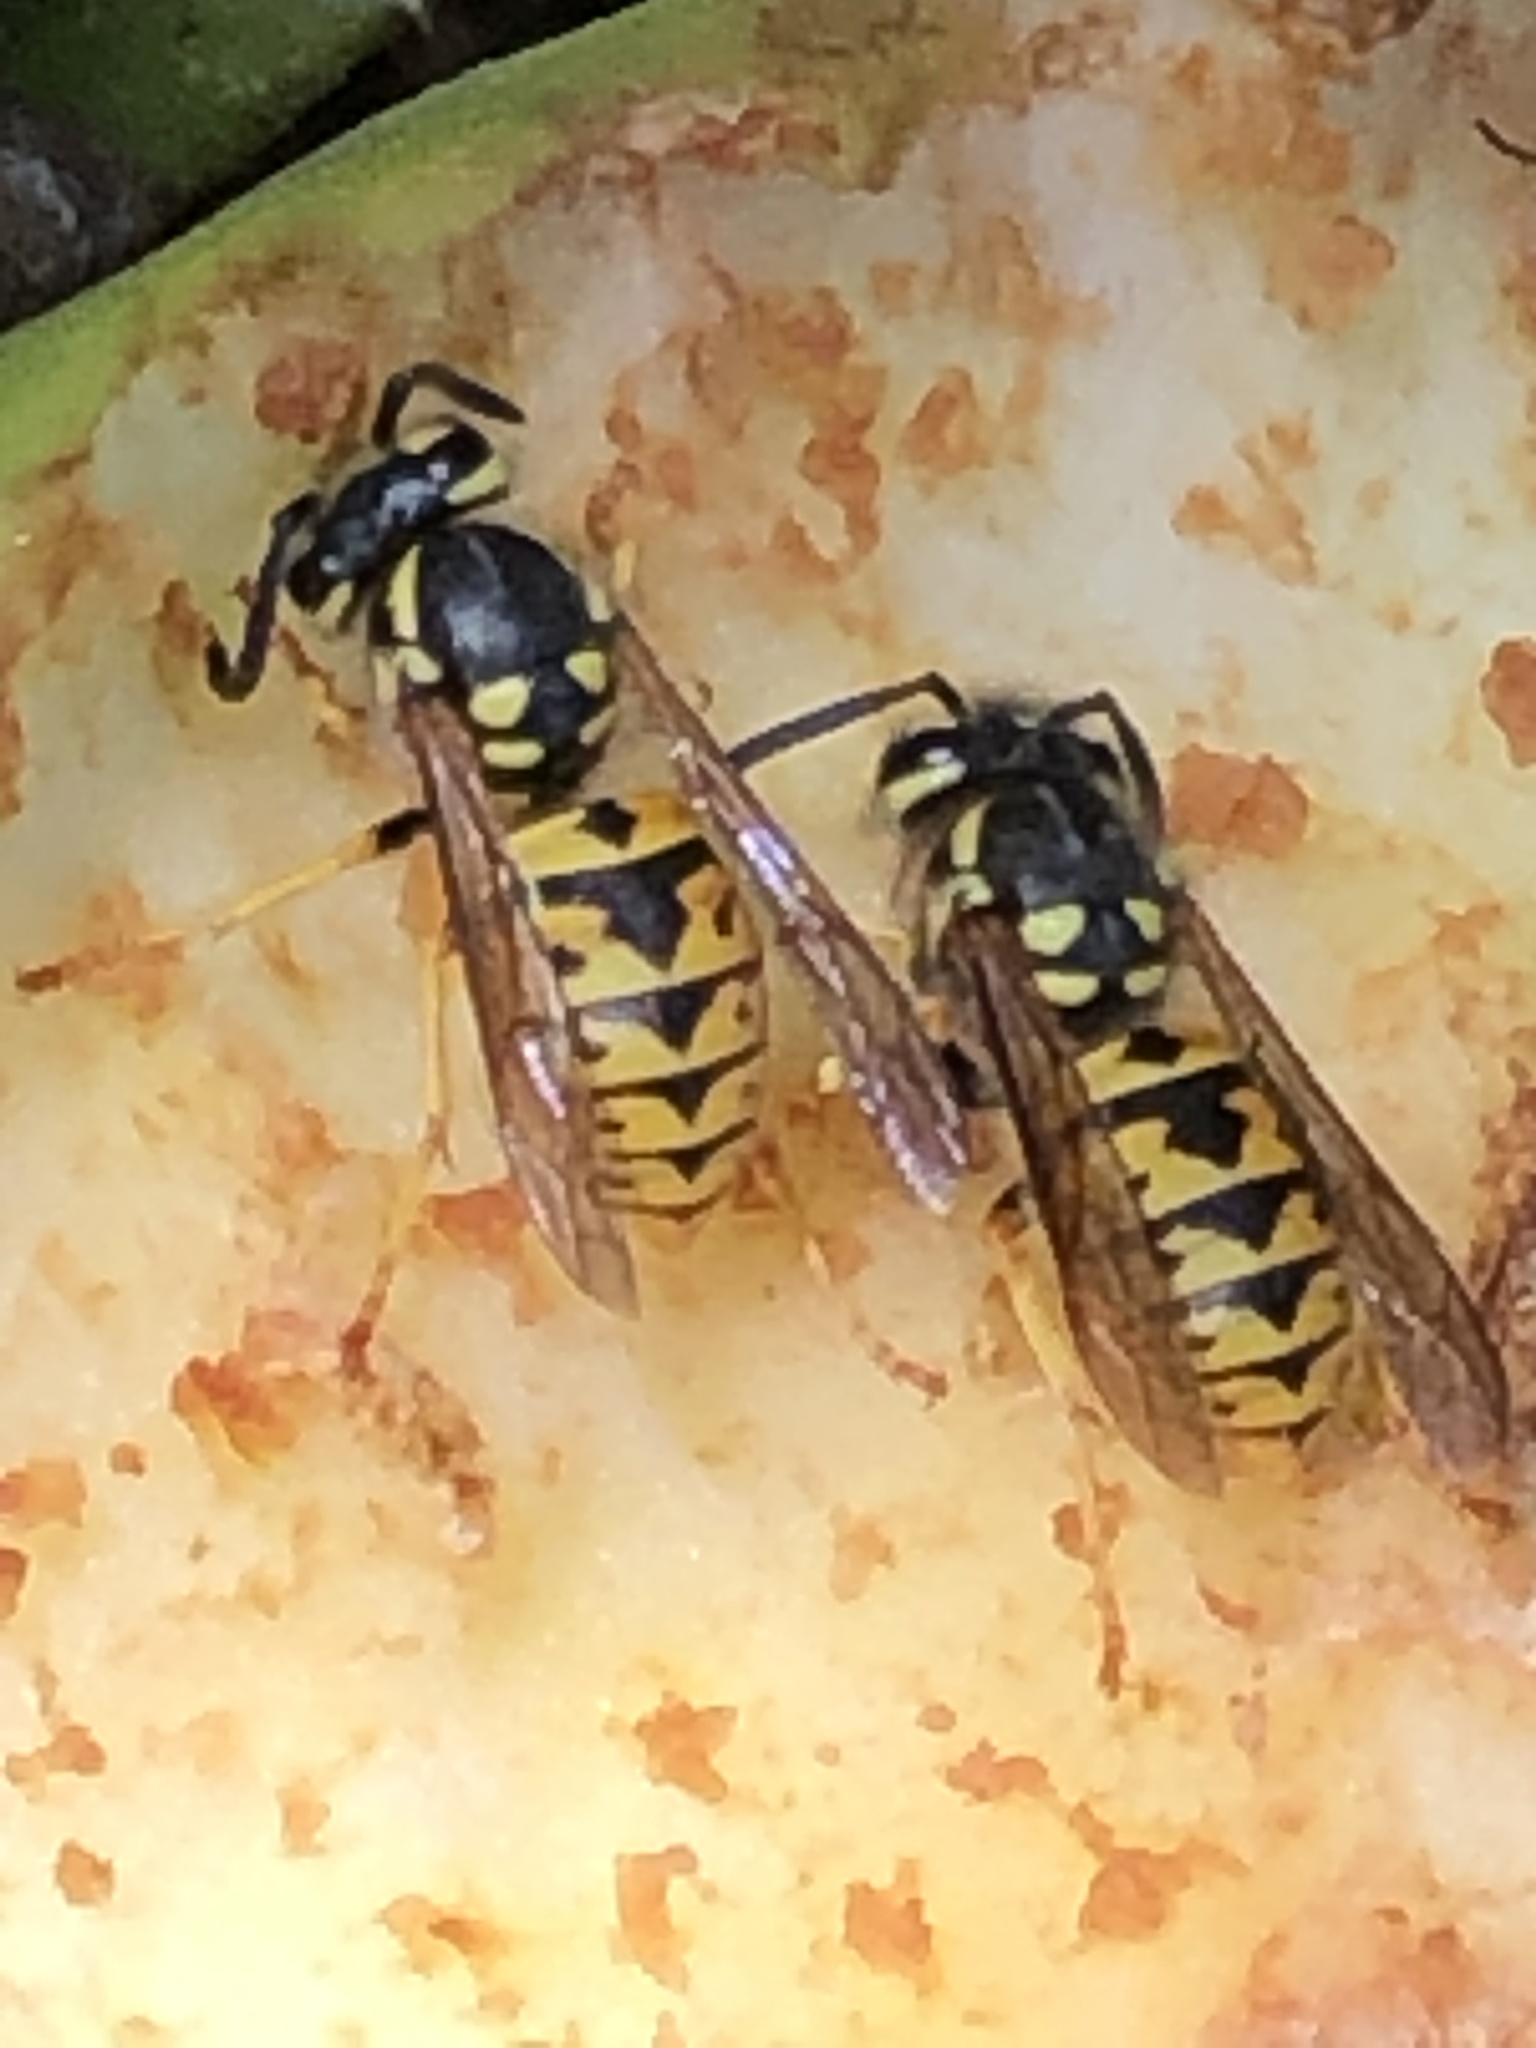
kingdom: Animalia
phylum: Arthropoda
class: Insecta
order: Hymenoptera
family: Vespidae
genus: Vespula
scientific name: Vespula germanica
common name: German wasp
